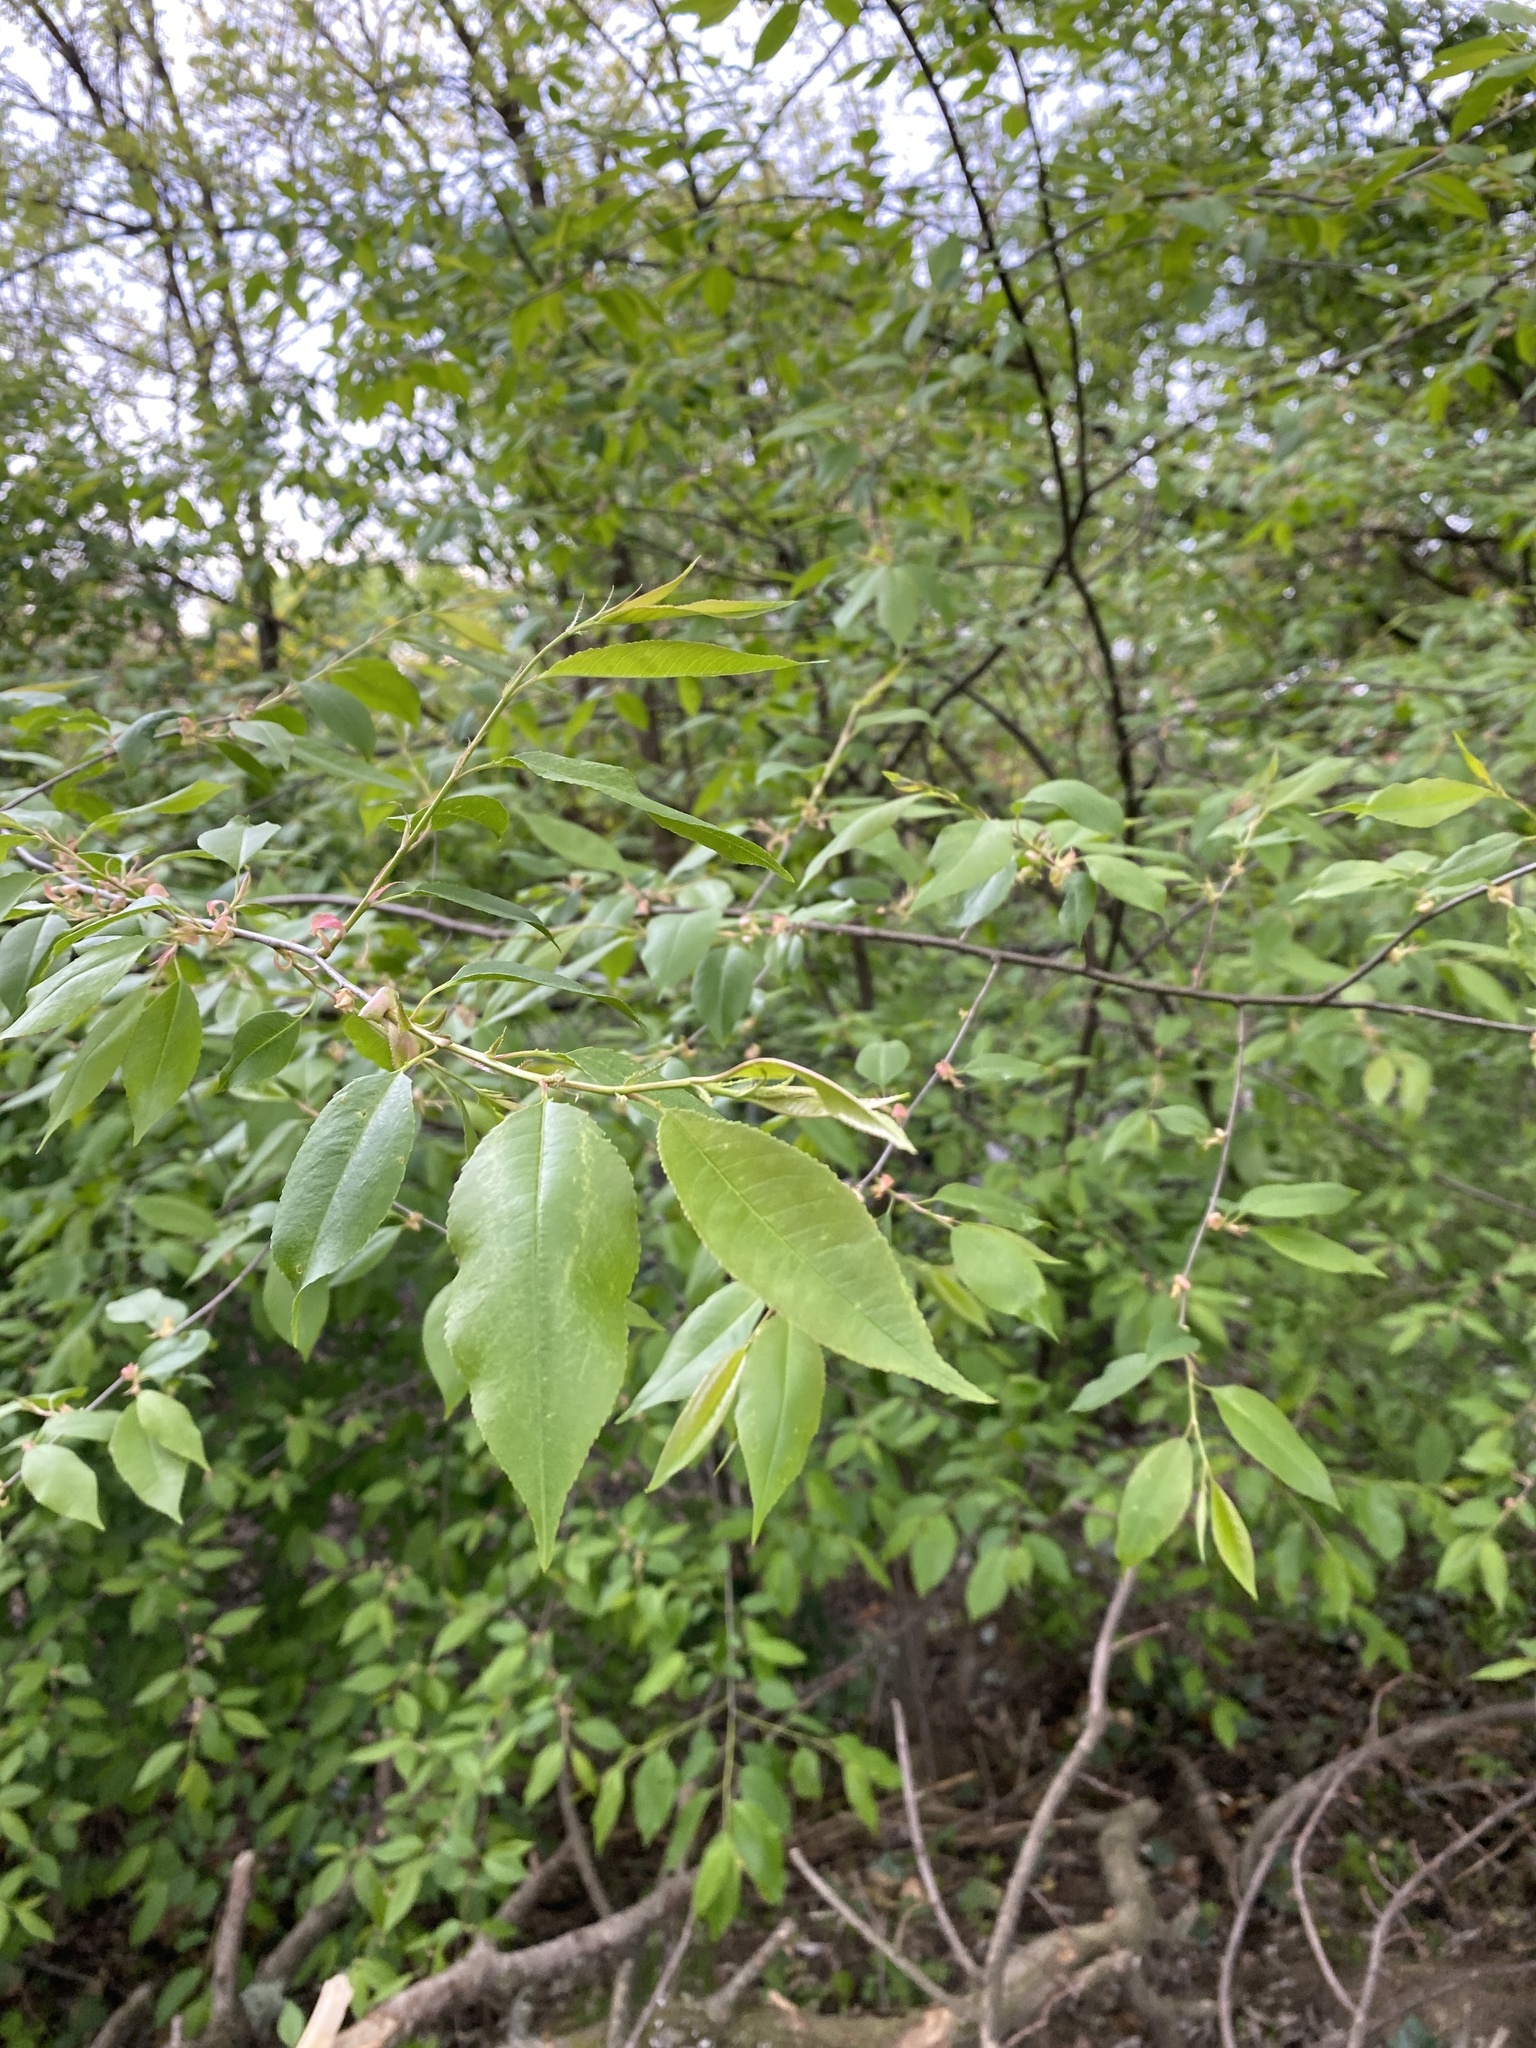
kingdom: Plantae
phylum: Tracheophyta
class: Magnoliopsida
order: Rosales
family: Rosaceae
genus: Prunus
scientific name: Prunus serotina
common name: Black cherry
